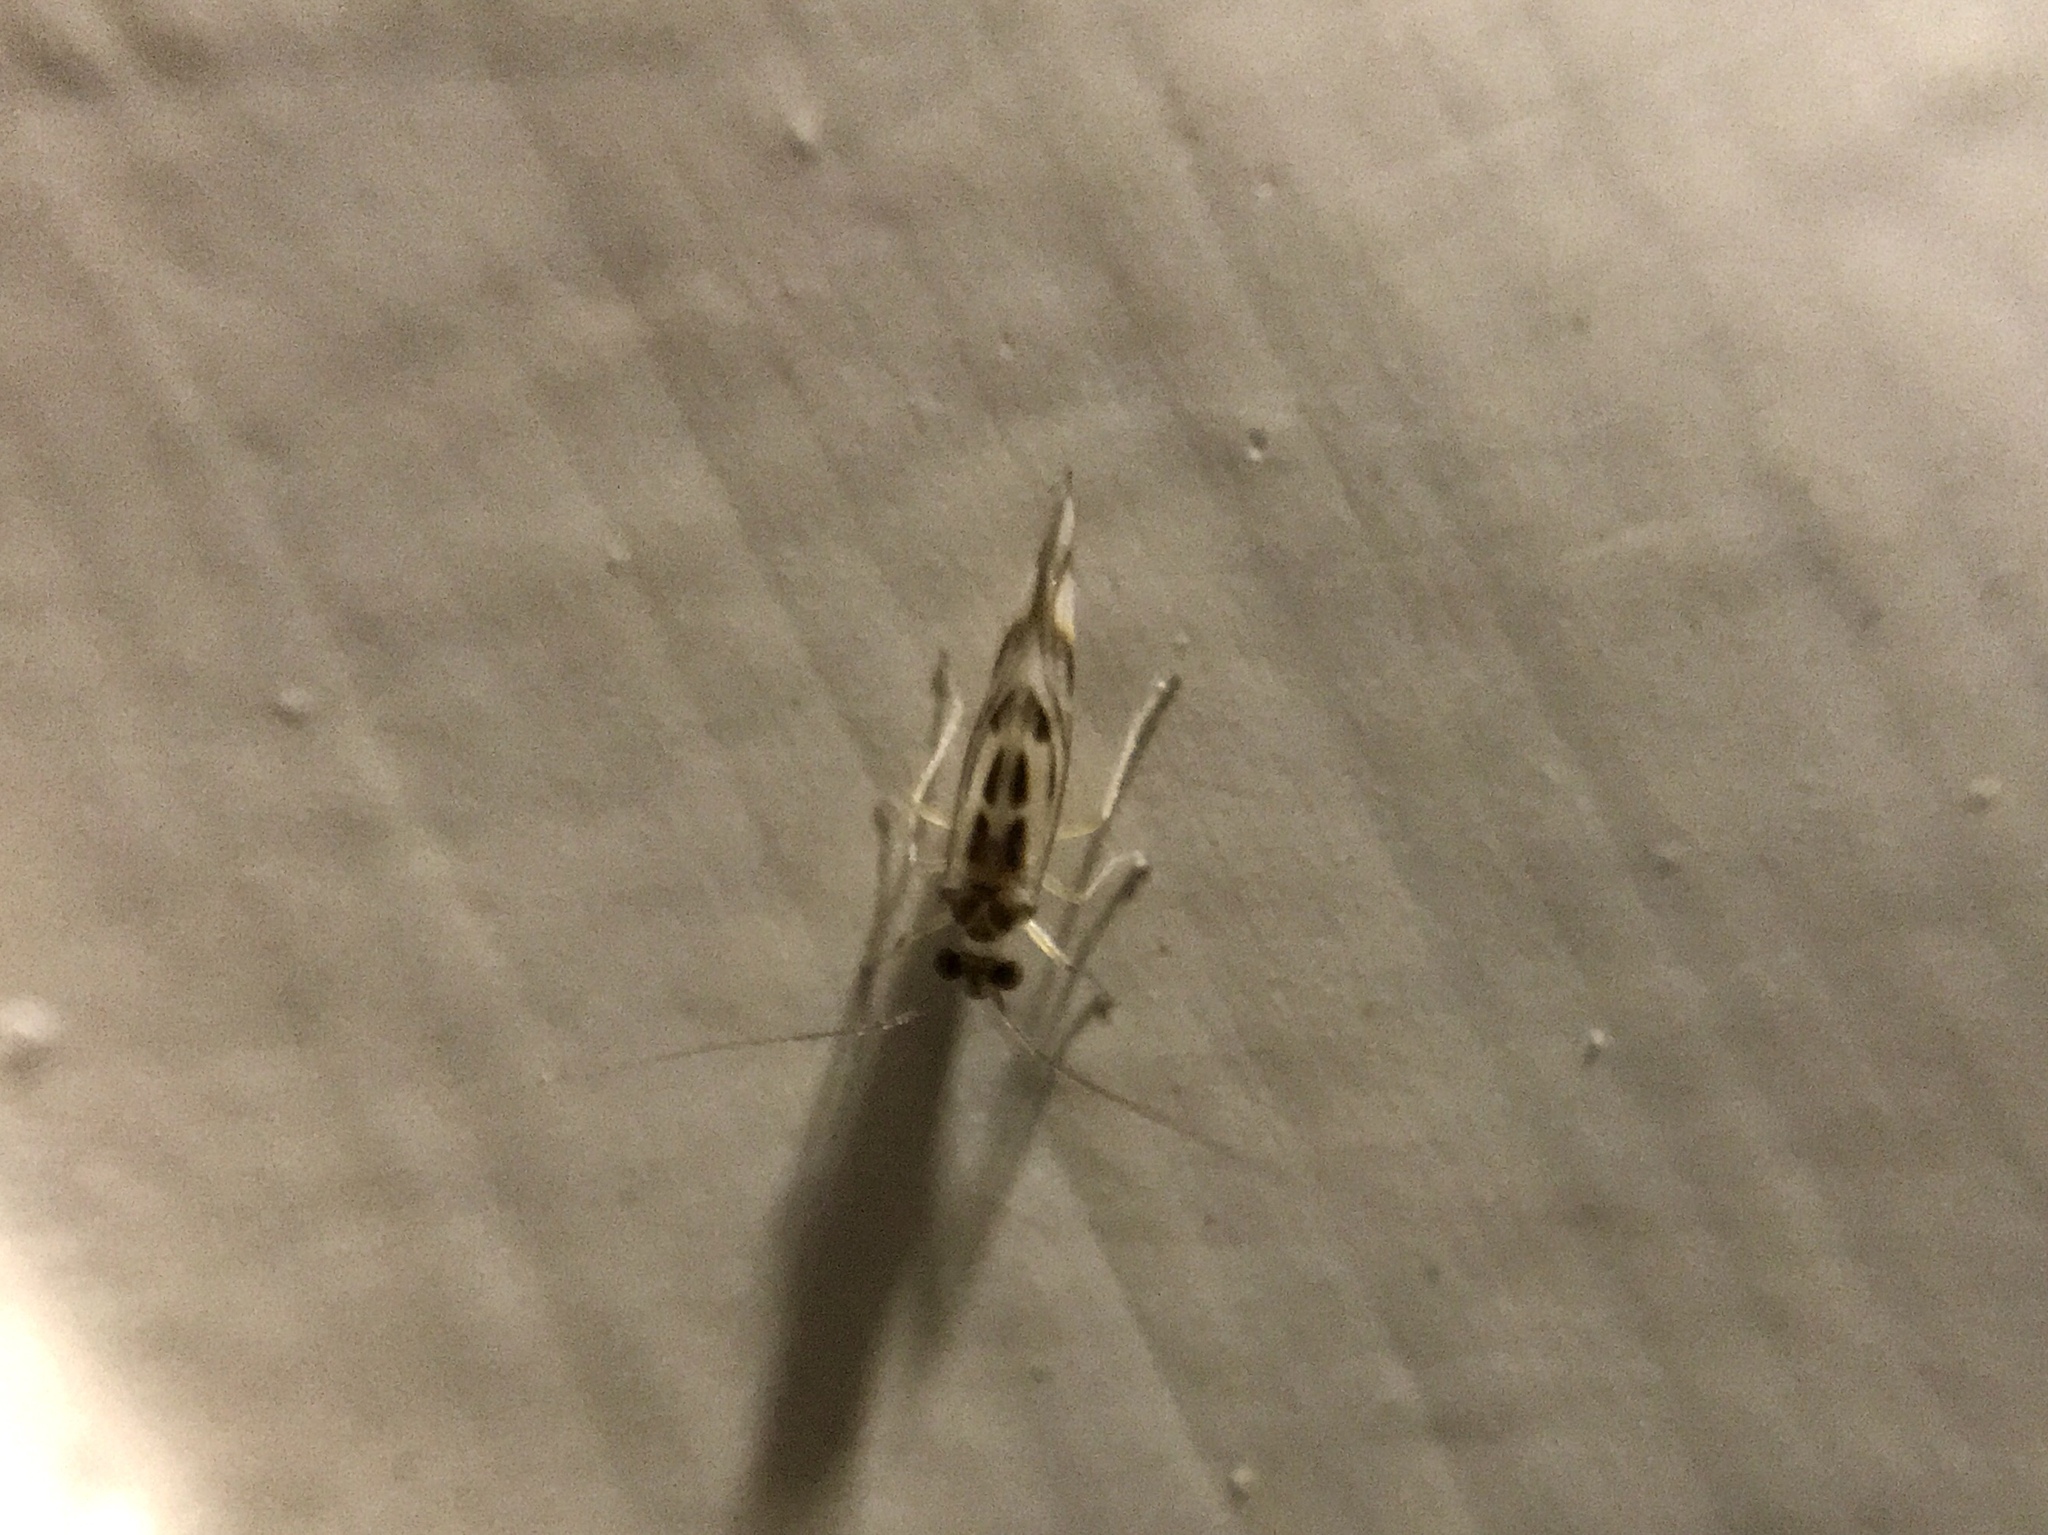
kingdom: Animalia
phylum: Arthropoda
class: Insecta
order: Psocodea
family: Stenopsocidae
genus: Graphopsocus
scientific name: Graphopsocus cruciatus
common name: Lizard bark louse
